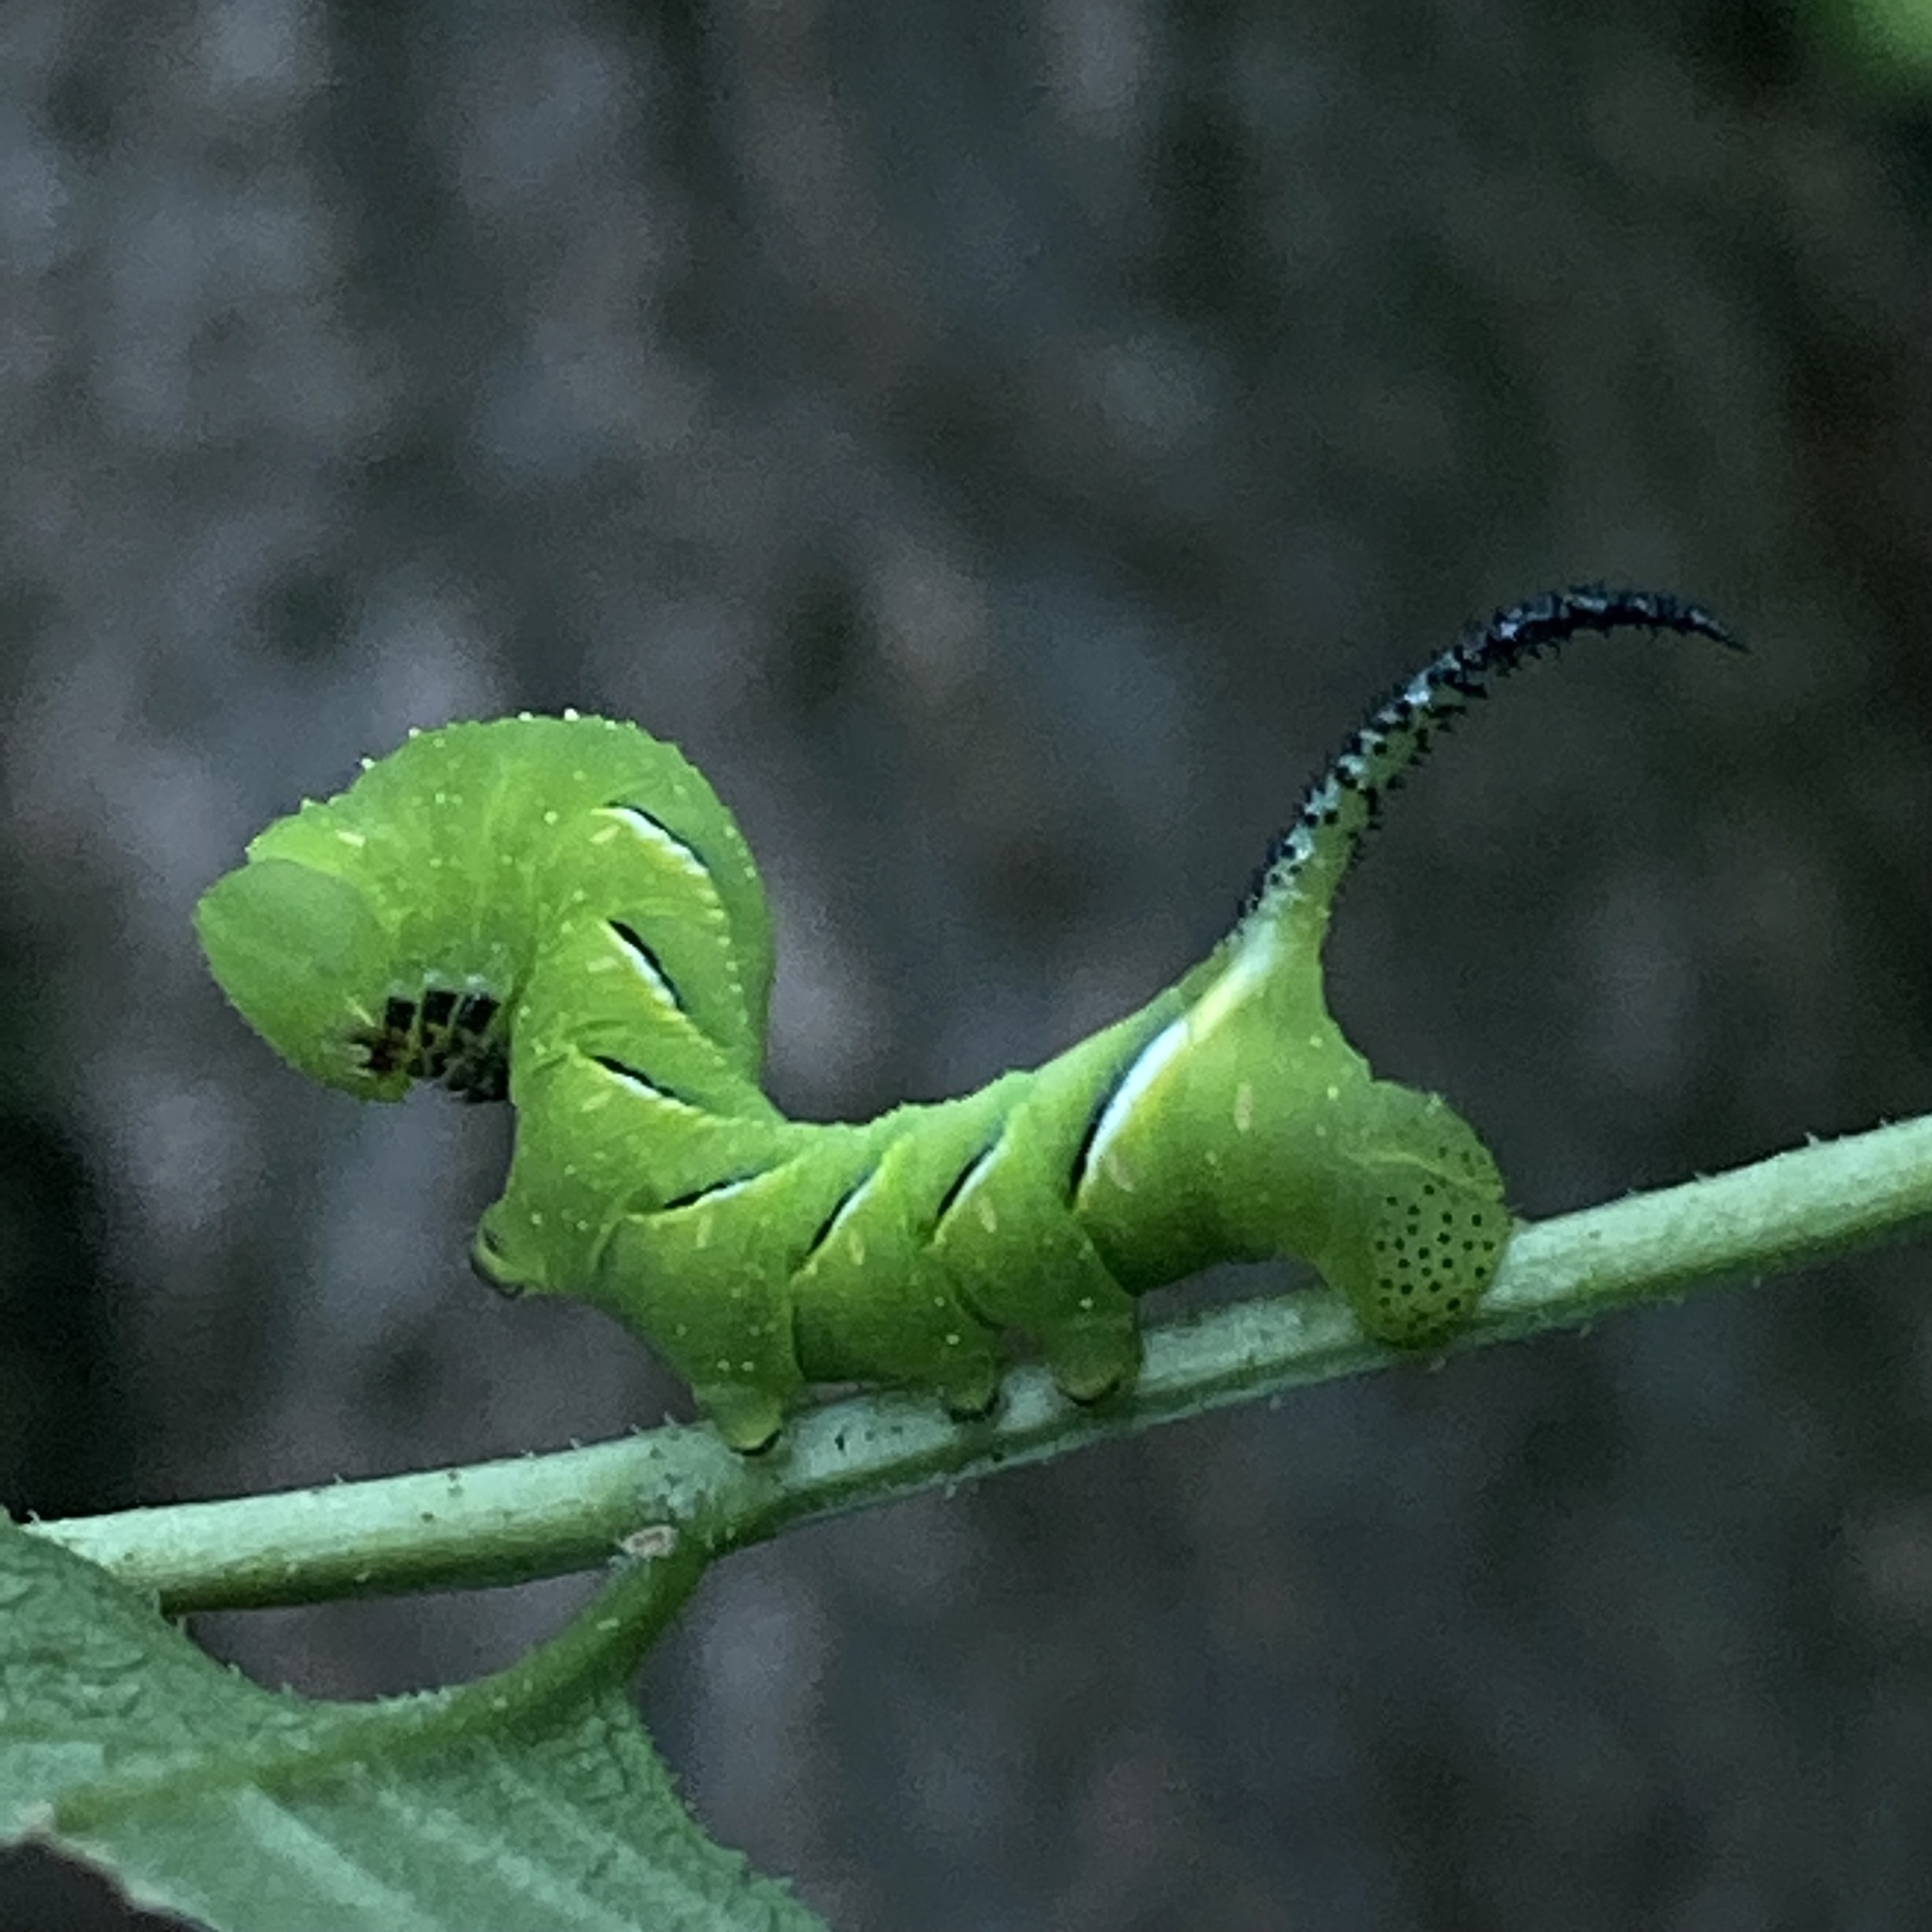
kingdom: Animalia
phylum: Arthropoda
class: Insecta
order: Lepidoptera
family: Sphingidae
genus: Sphinx
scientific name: Sphinx kalmiae
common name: Laurel sphinx
